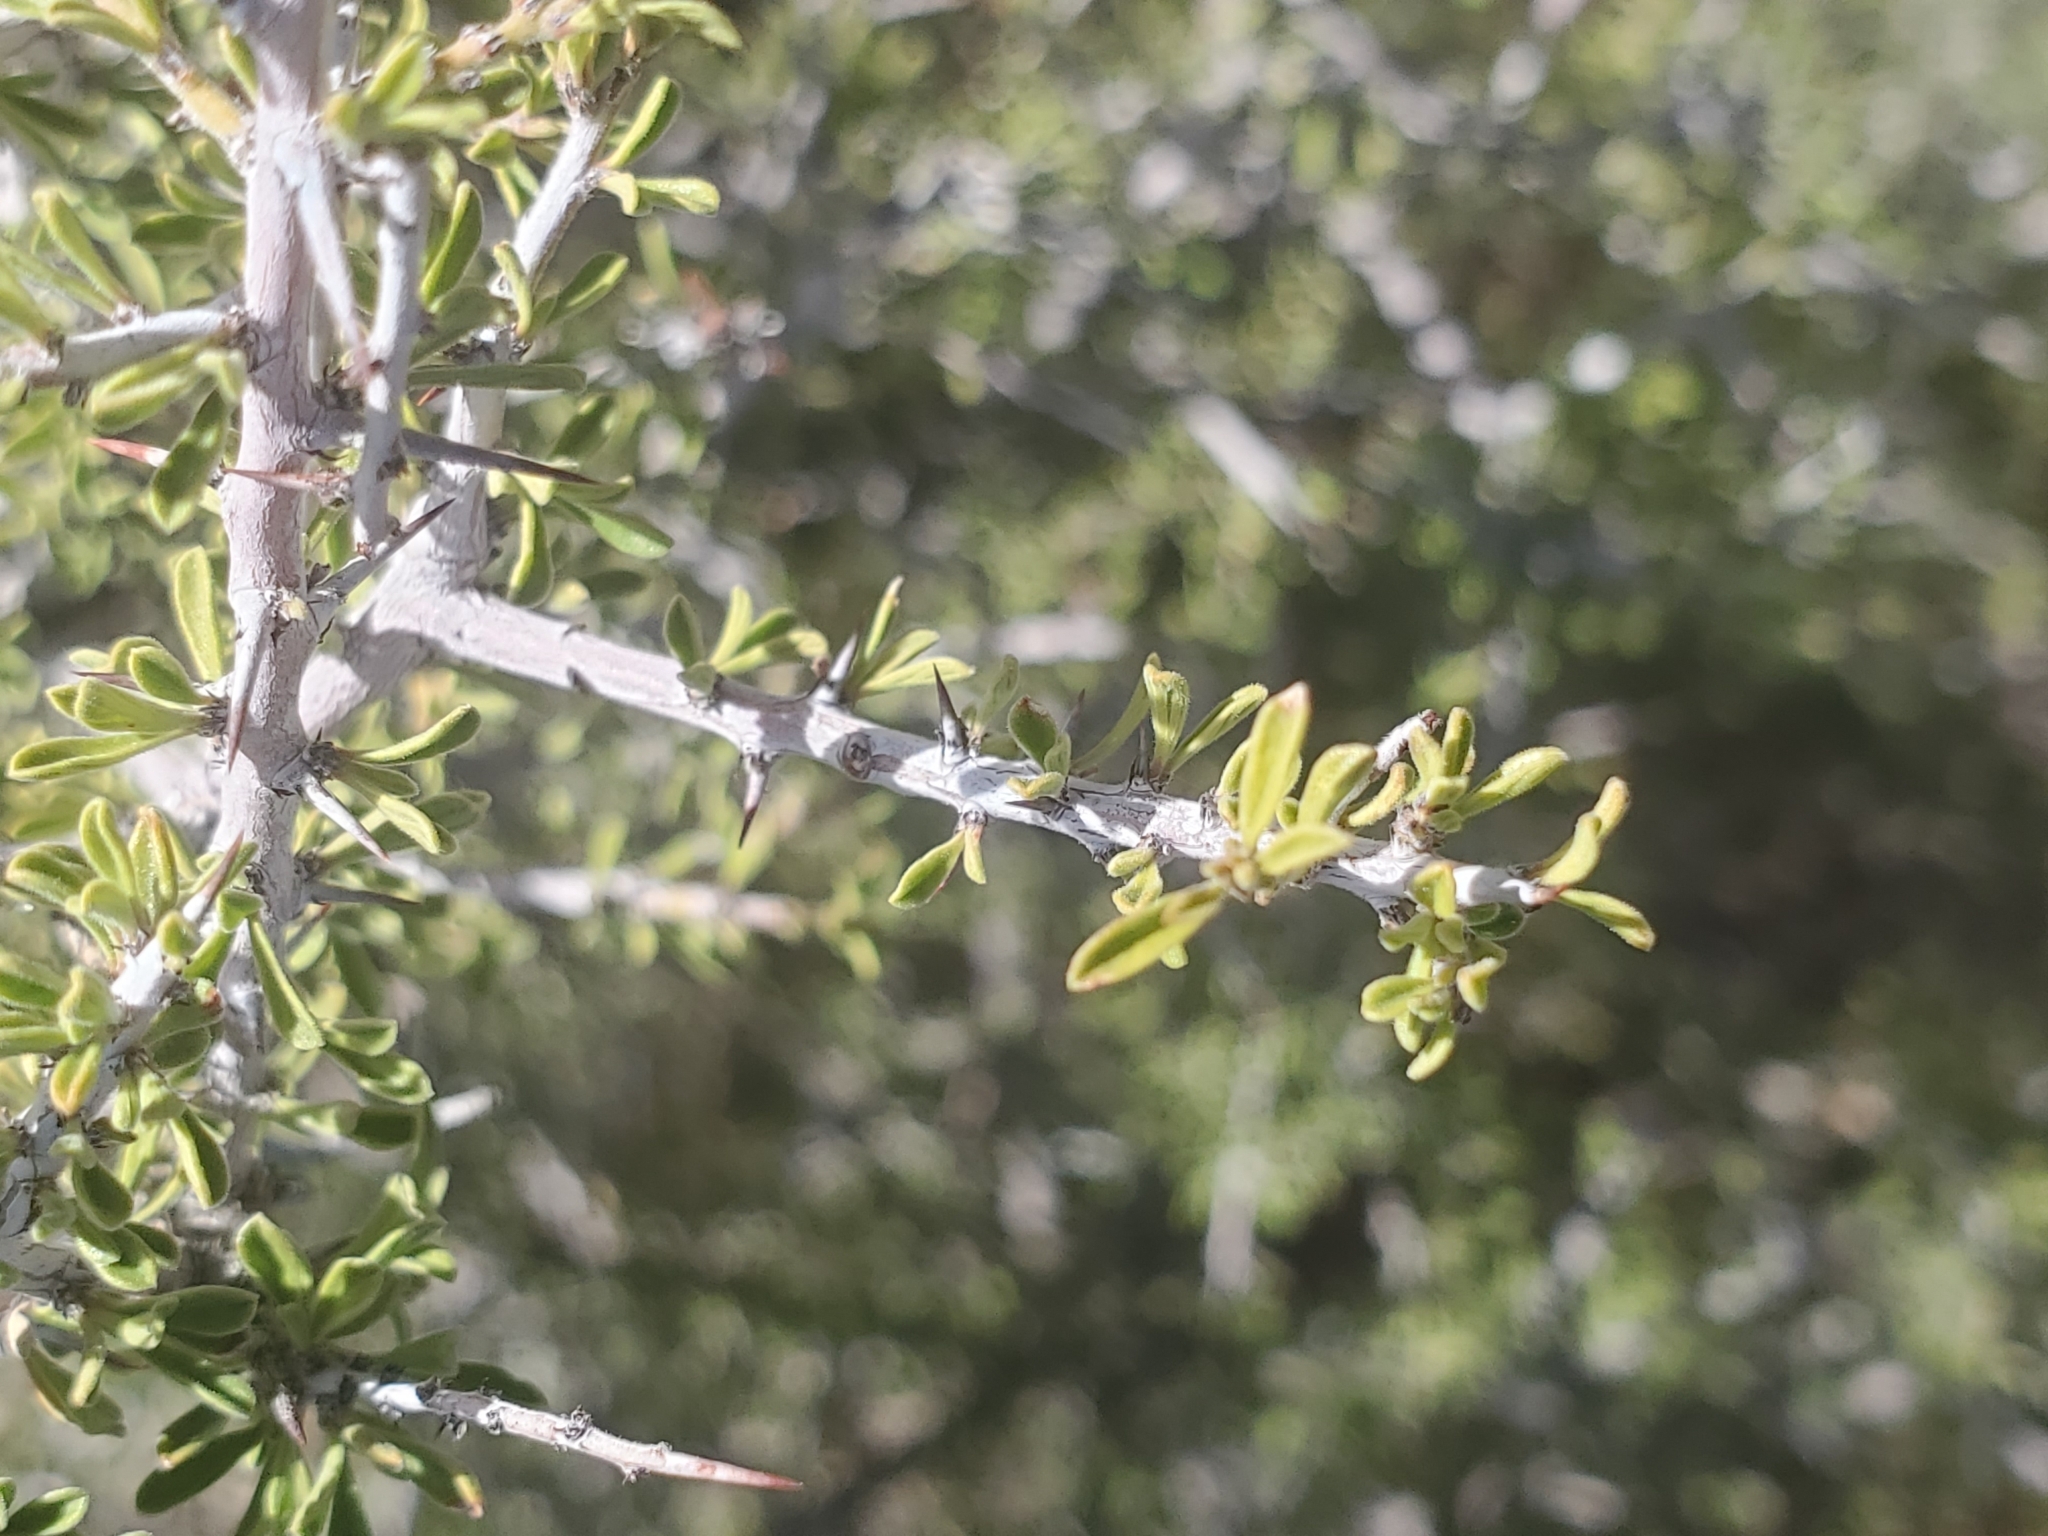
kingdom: Plantae
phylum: Tracheophyta
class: Magnoliopsida
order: Rosales
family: Rhamnaceae
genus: Condalia
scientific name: Condalia warnockii
